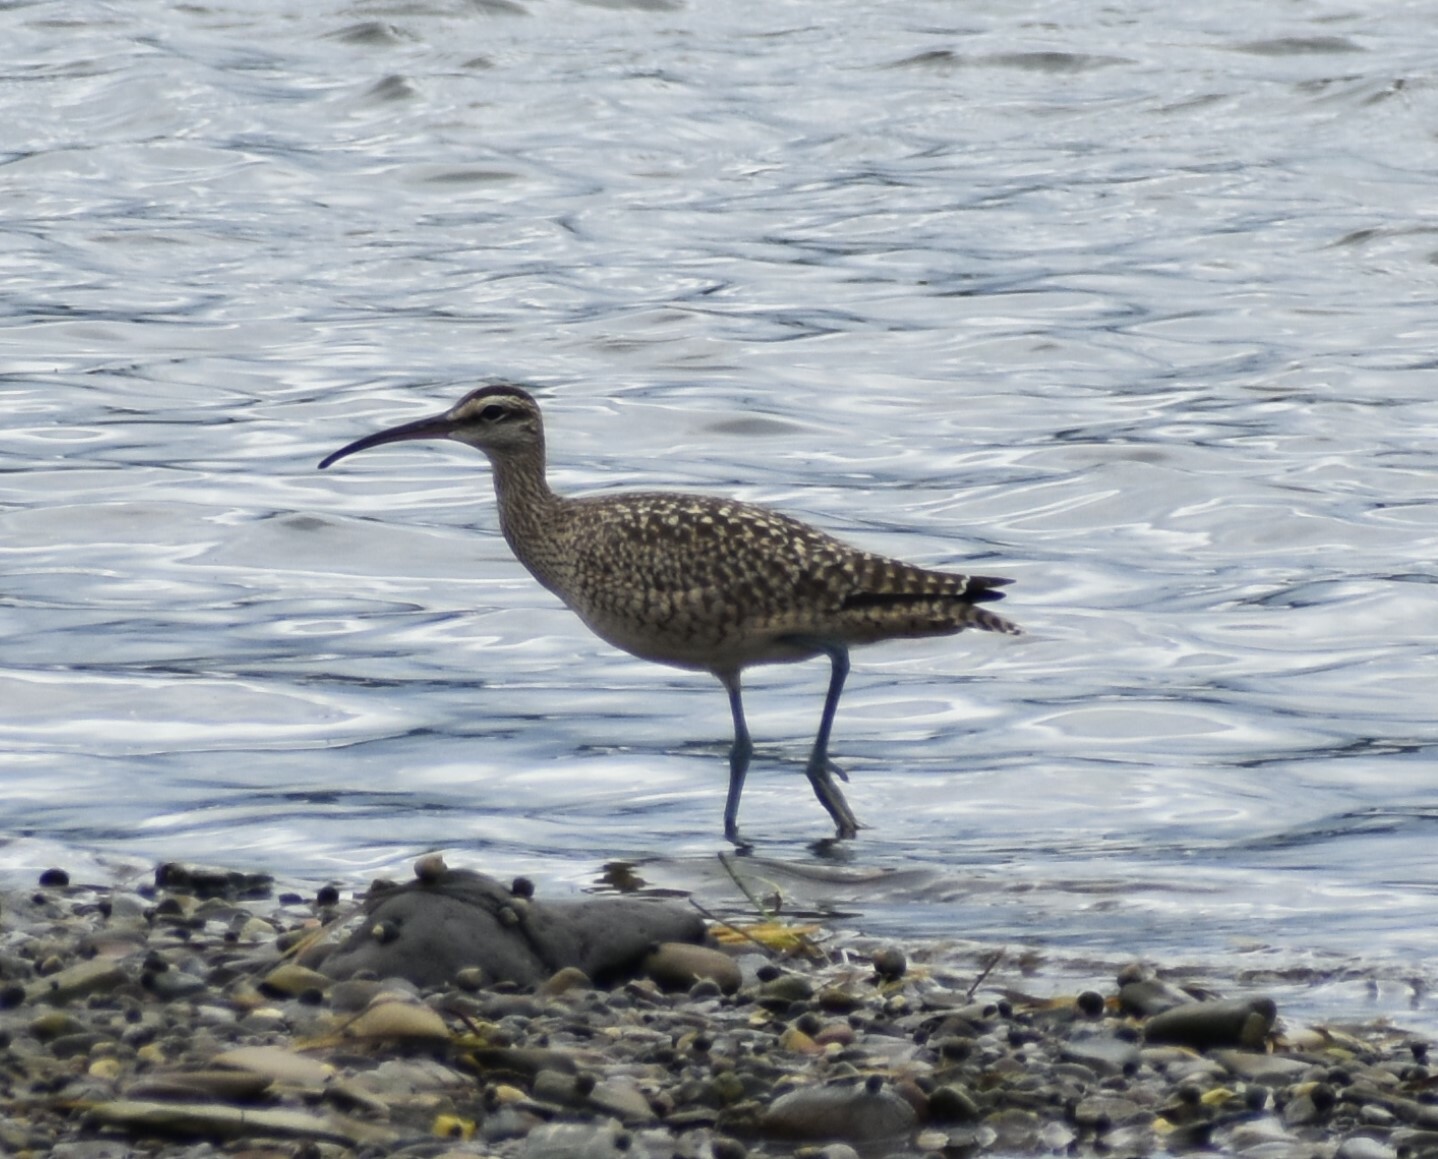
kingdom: Animalia
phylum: Chordata
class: Aves
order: Charadriiformes
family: Scolopacidae
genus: Numenius
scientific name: Numenius phaeopus
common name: Whimbrel
